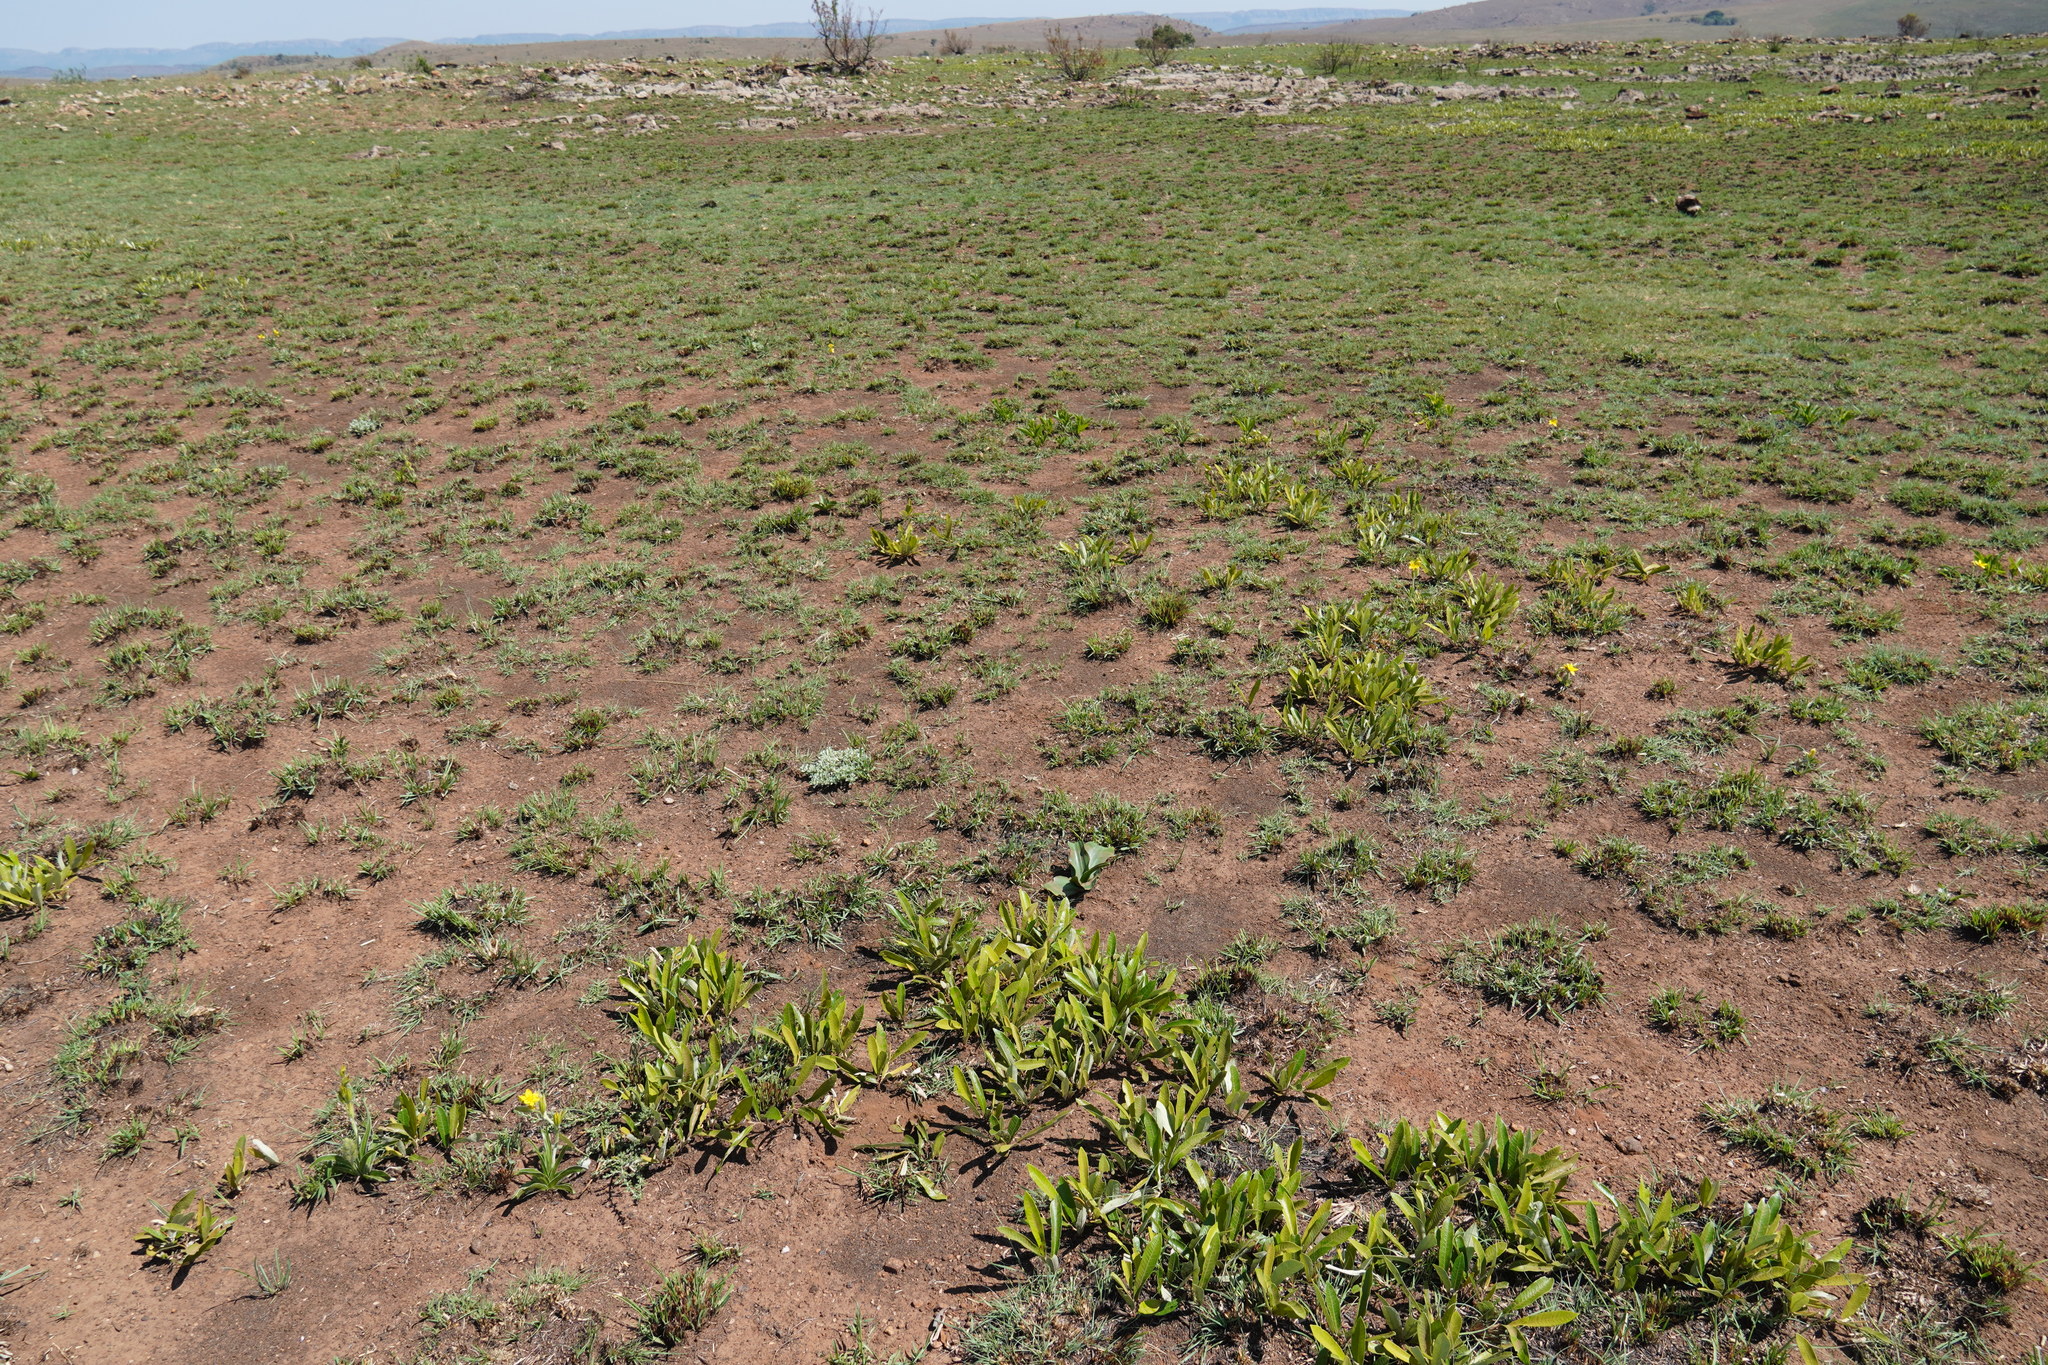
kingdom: Plantae
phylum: Tracheophyta
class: Liliopsida
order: Asparagales
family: Amaryllidaceae
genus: Crinum
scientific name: Crinum graminicola
